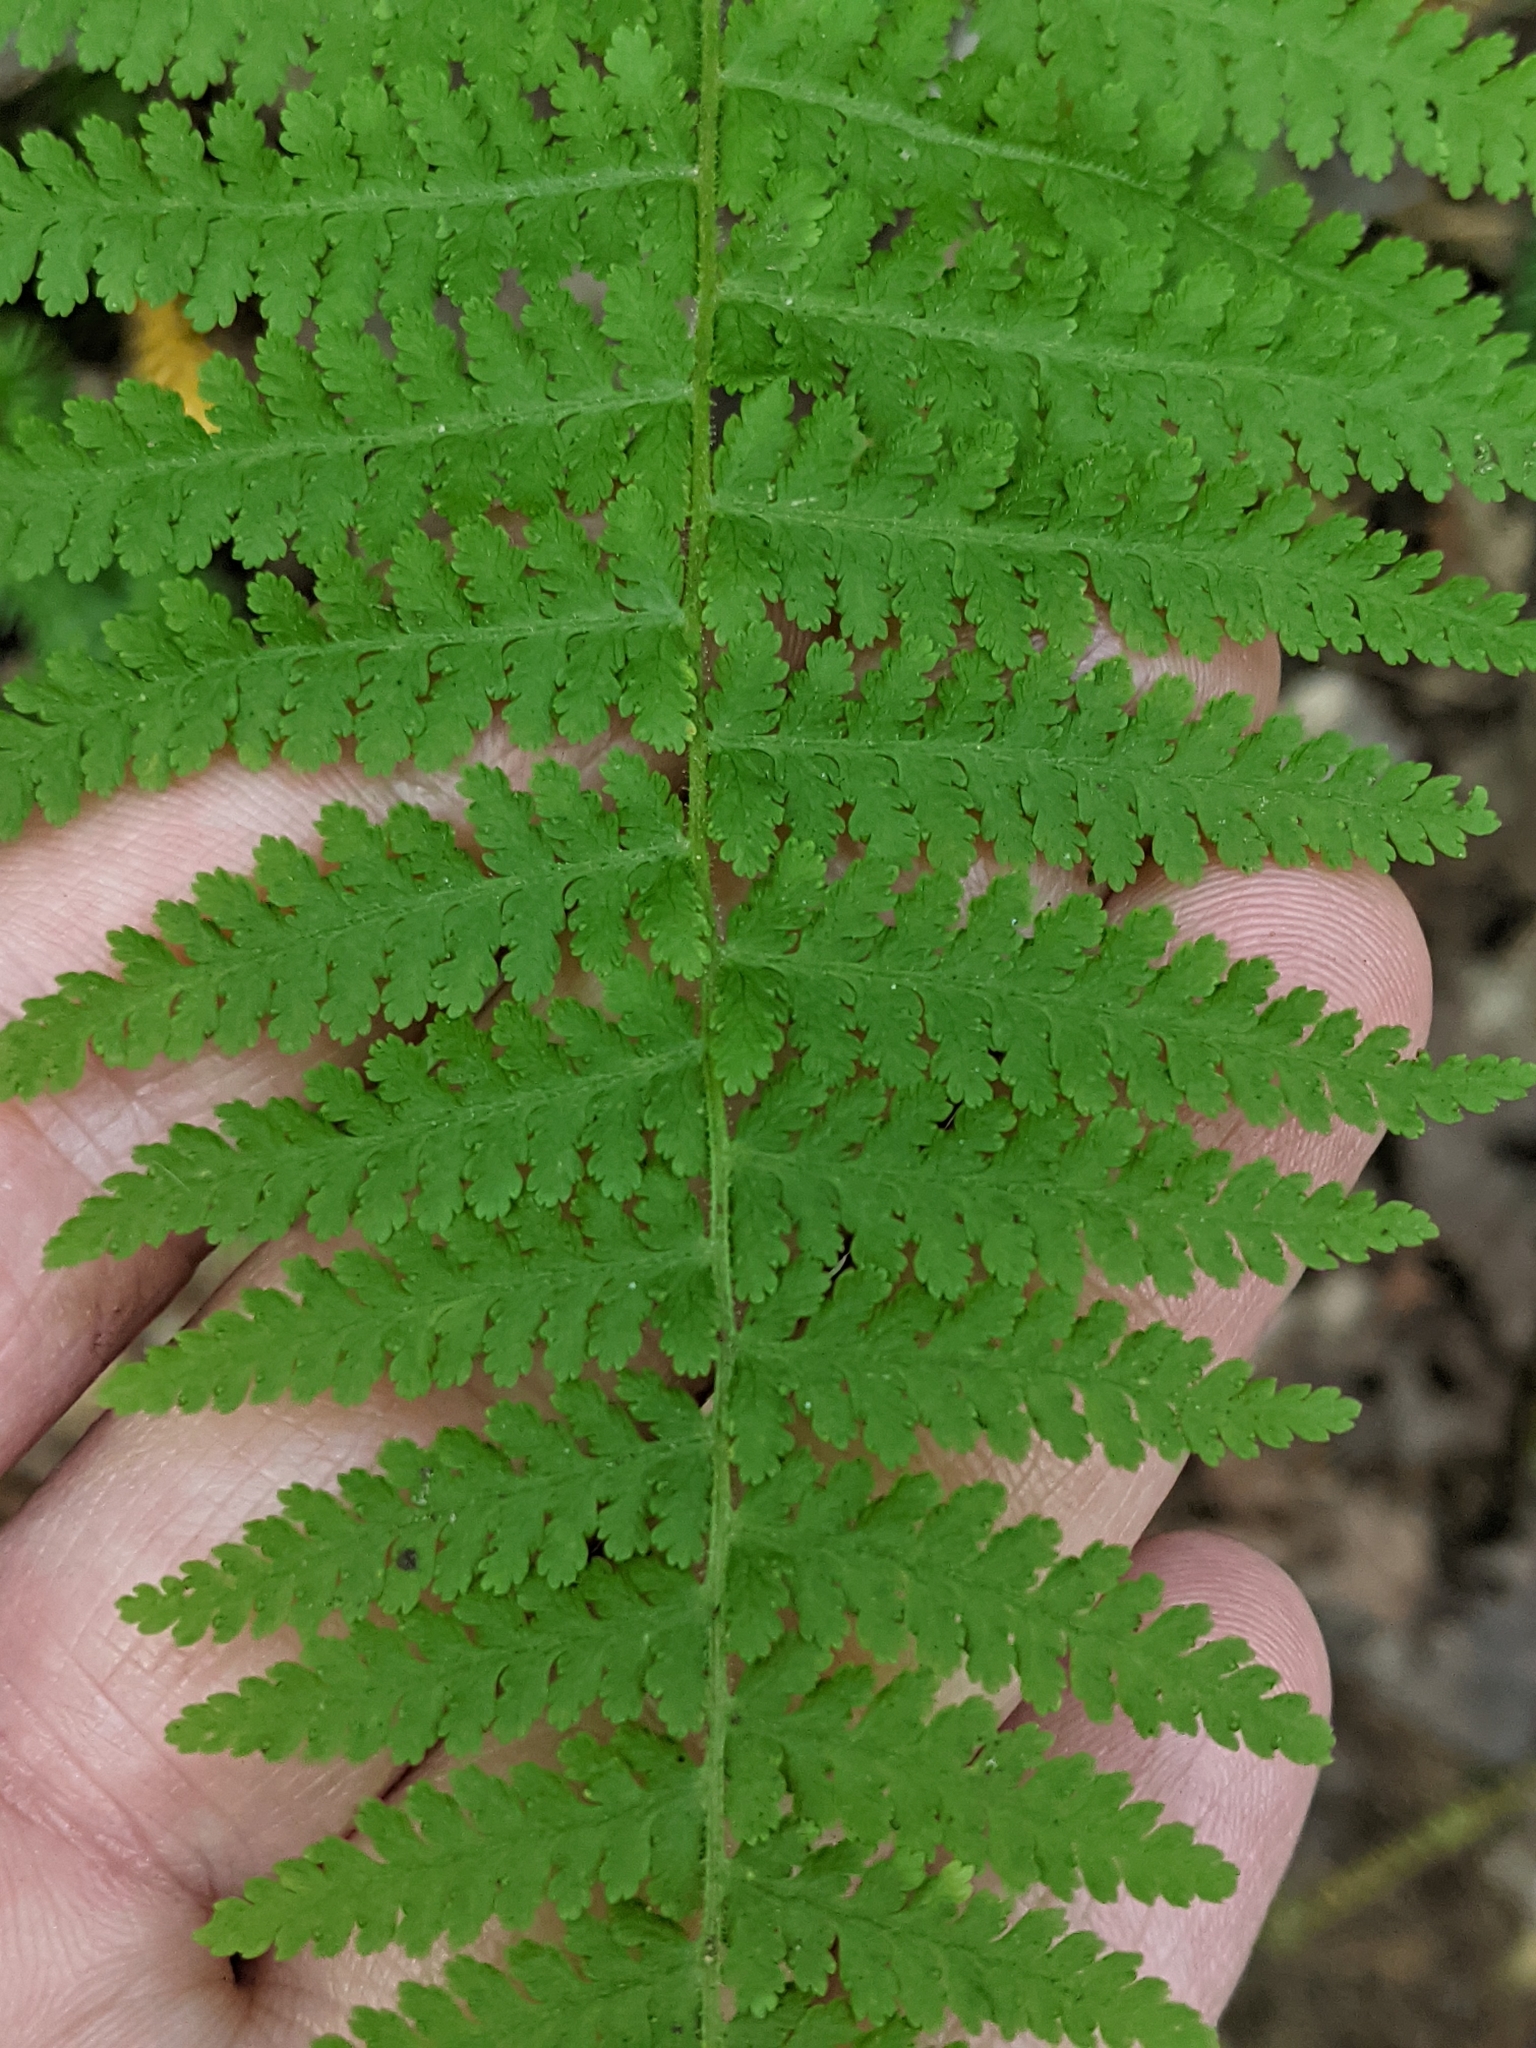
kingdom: Plantae
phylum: Tracheophyta
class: Polypodiopsida
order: Polypodiales
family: Dennstaedtiaceae
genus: Sitobolium
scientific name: Sitobolium punctilobum
